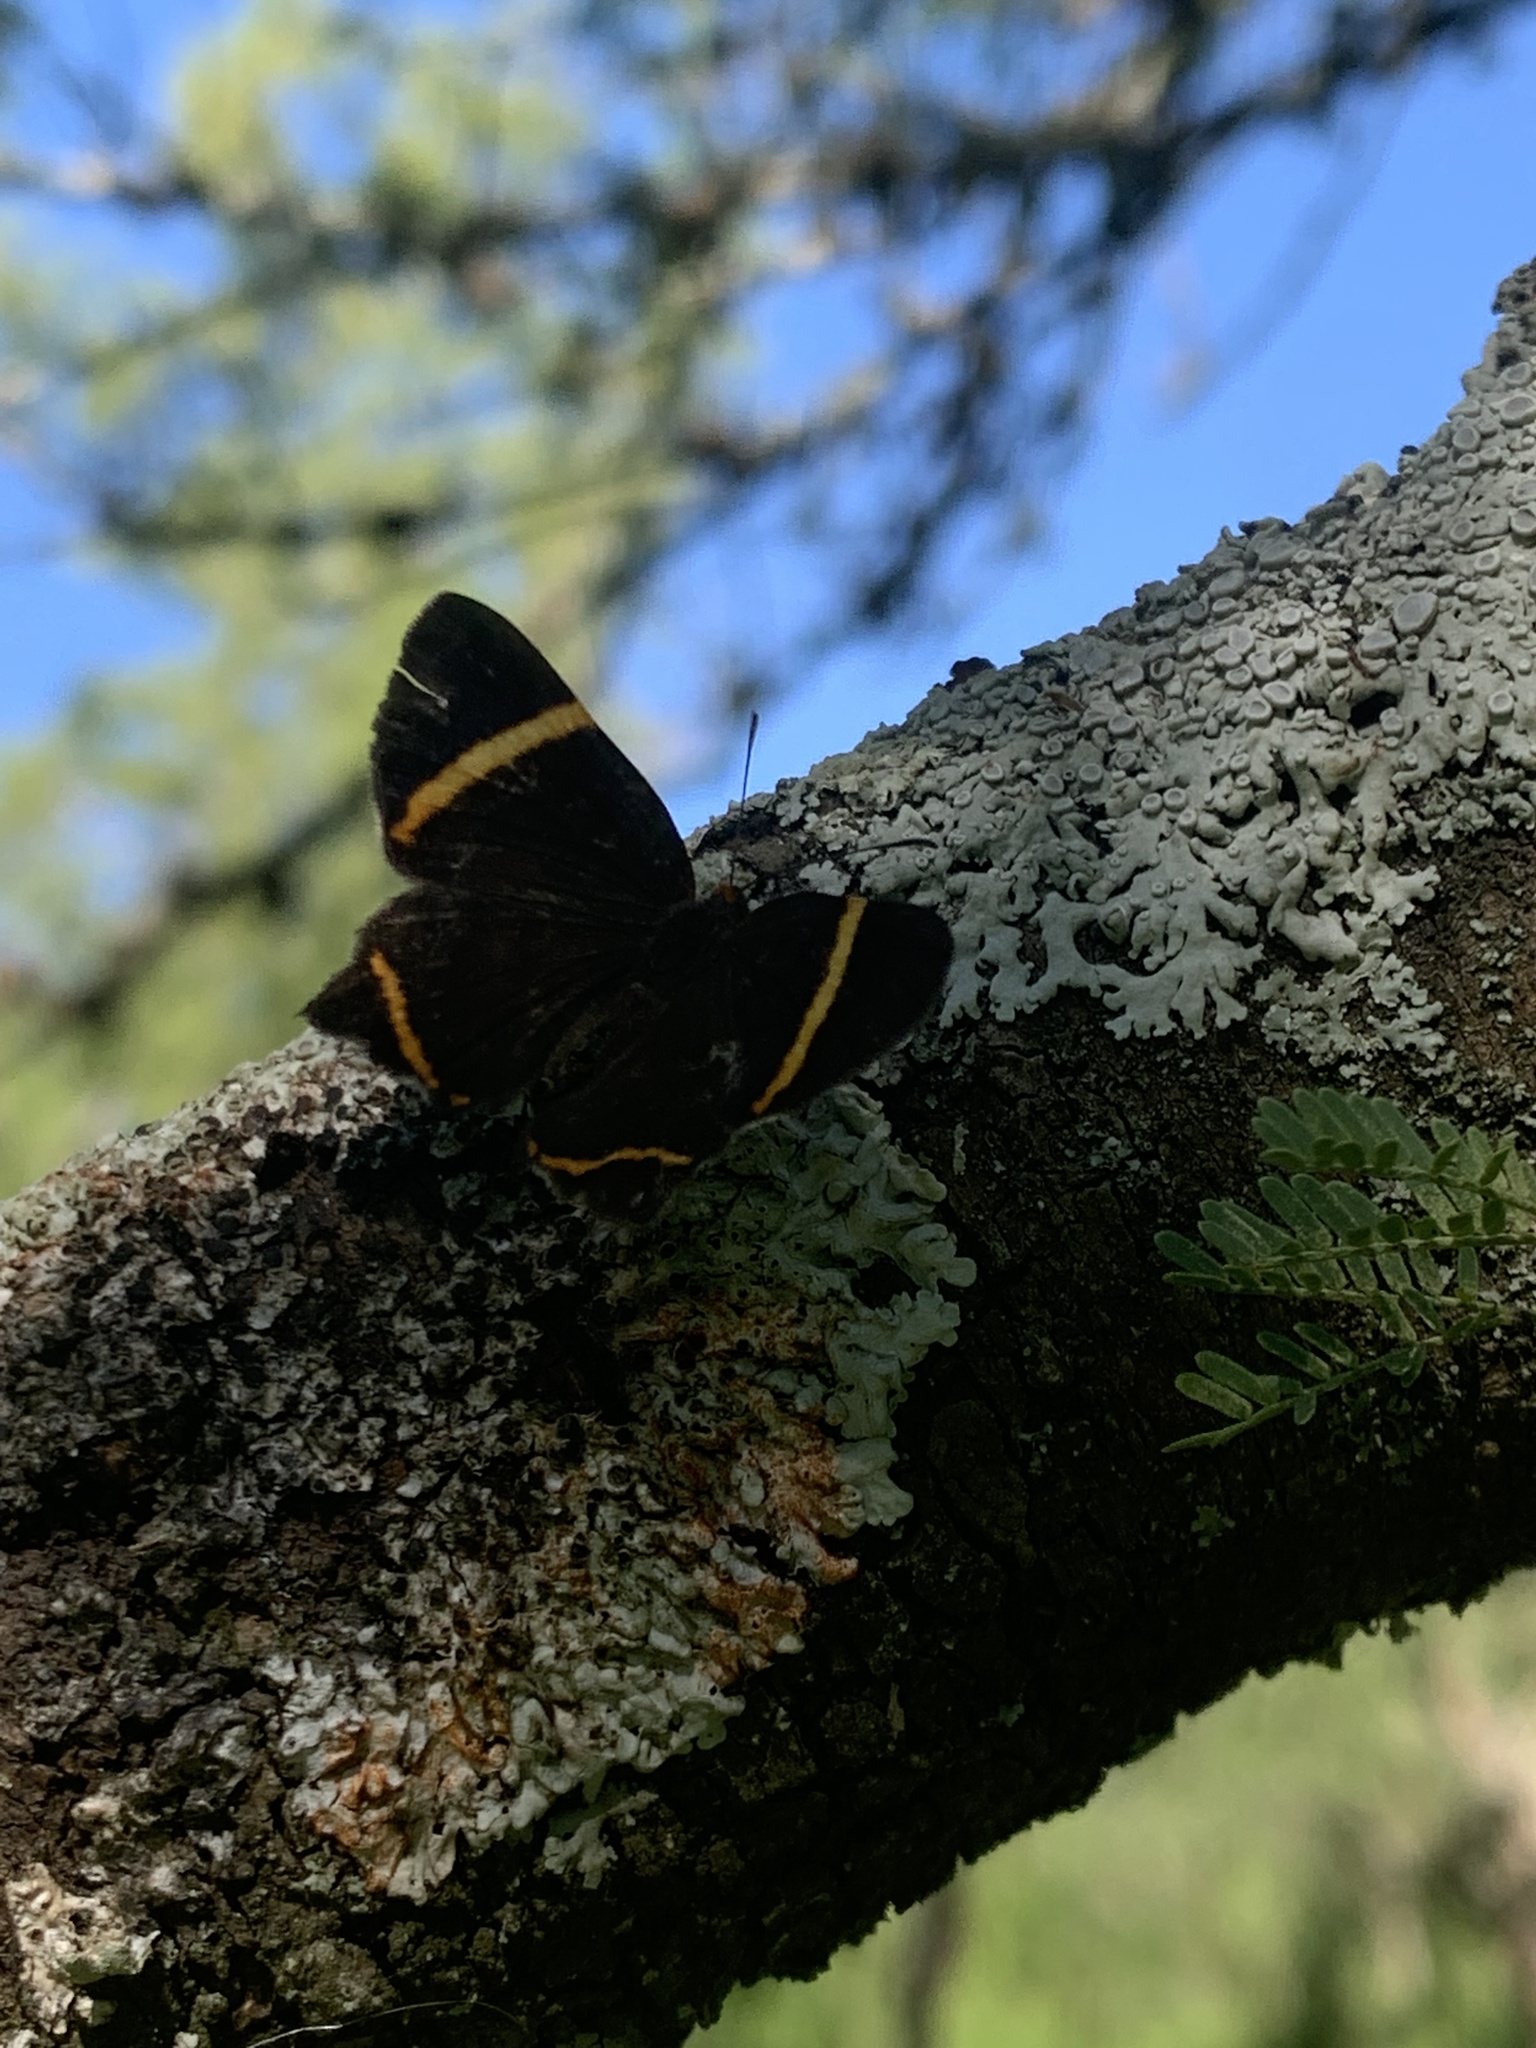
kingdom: Animalia
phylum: Arthropoda
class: Insecta
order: Lepidoptera
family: Riodinidae
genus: Riodina
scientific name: Riodina lysippoides
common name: Little dancer metalmark
